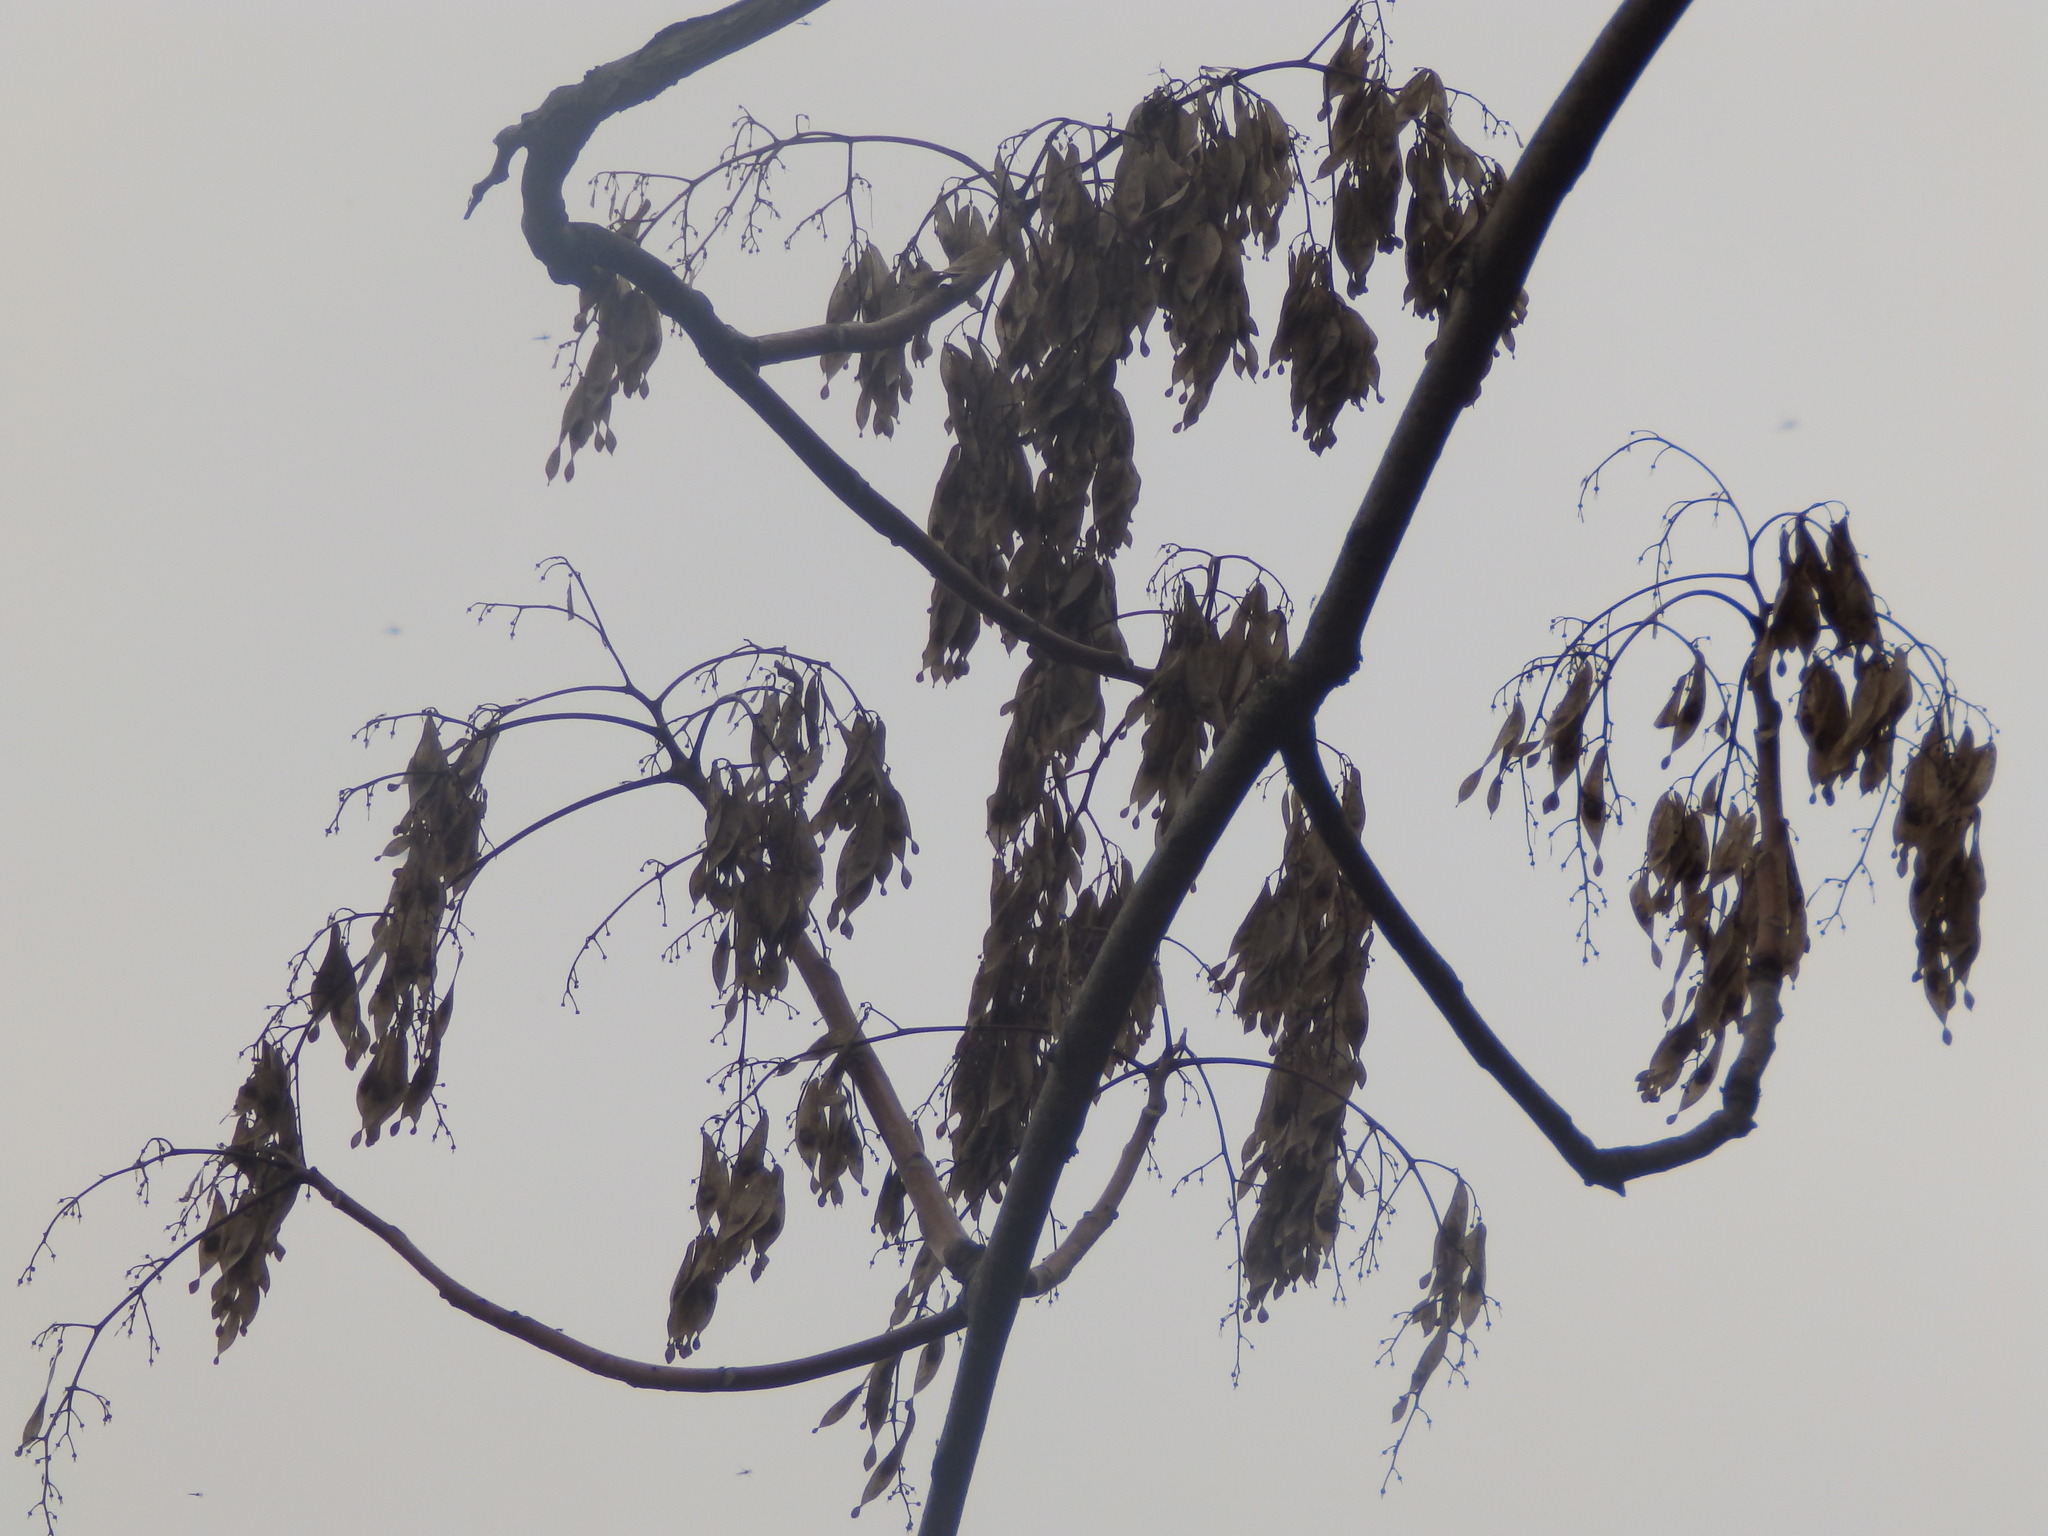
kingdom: Plantae
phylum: Tracheophyta
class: Magnoliopsida
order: Sapindales
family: Simaroubaceae
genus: Ailanthus
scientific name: Ailanthus altissima
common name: Tree-of-heaven
